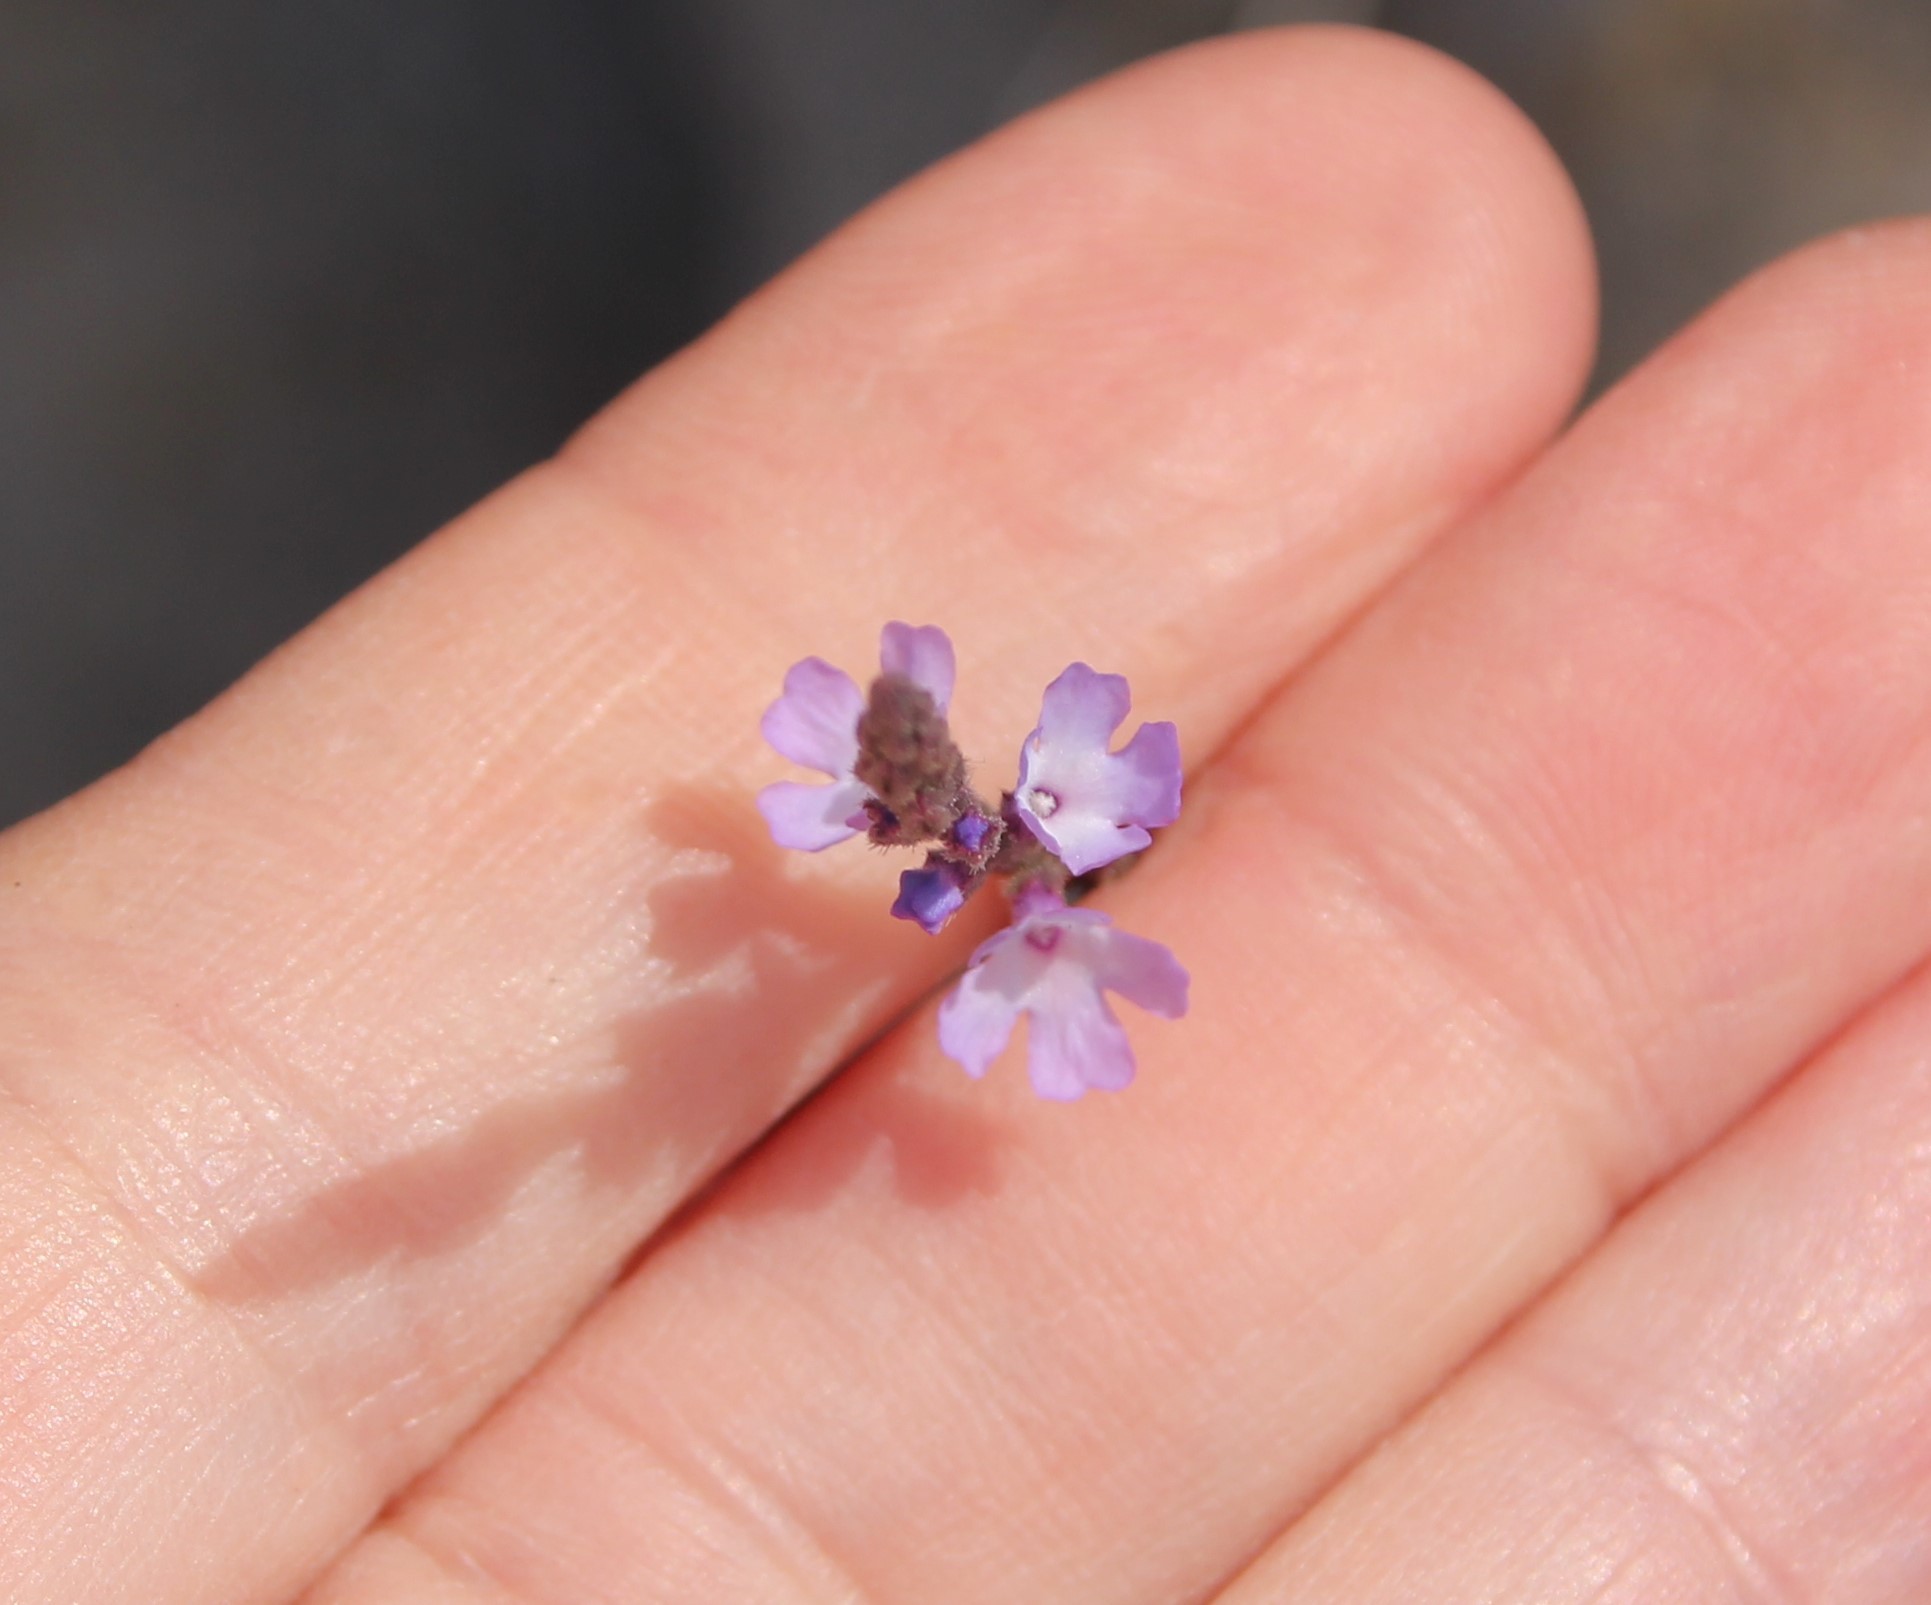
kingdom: Plantae
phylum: Tracheophyta
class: Magnoliopsida
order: Lamiales
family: Verbenaceae
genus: Verbena
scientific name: Verbena menthifolia
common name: Mint-leaf vervain
